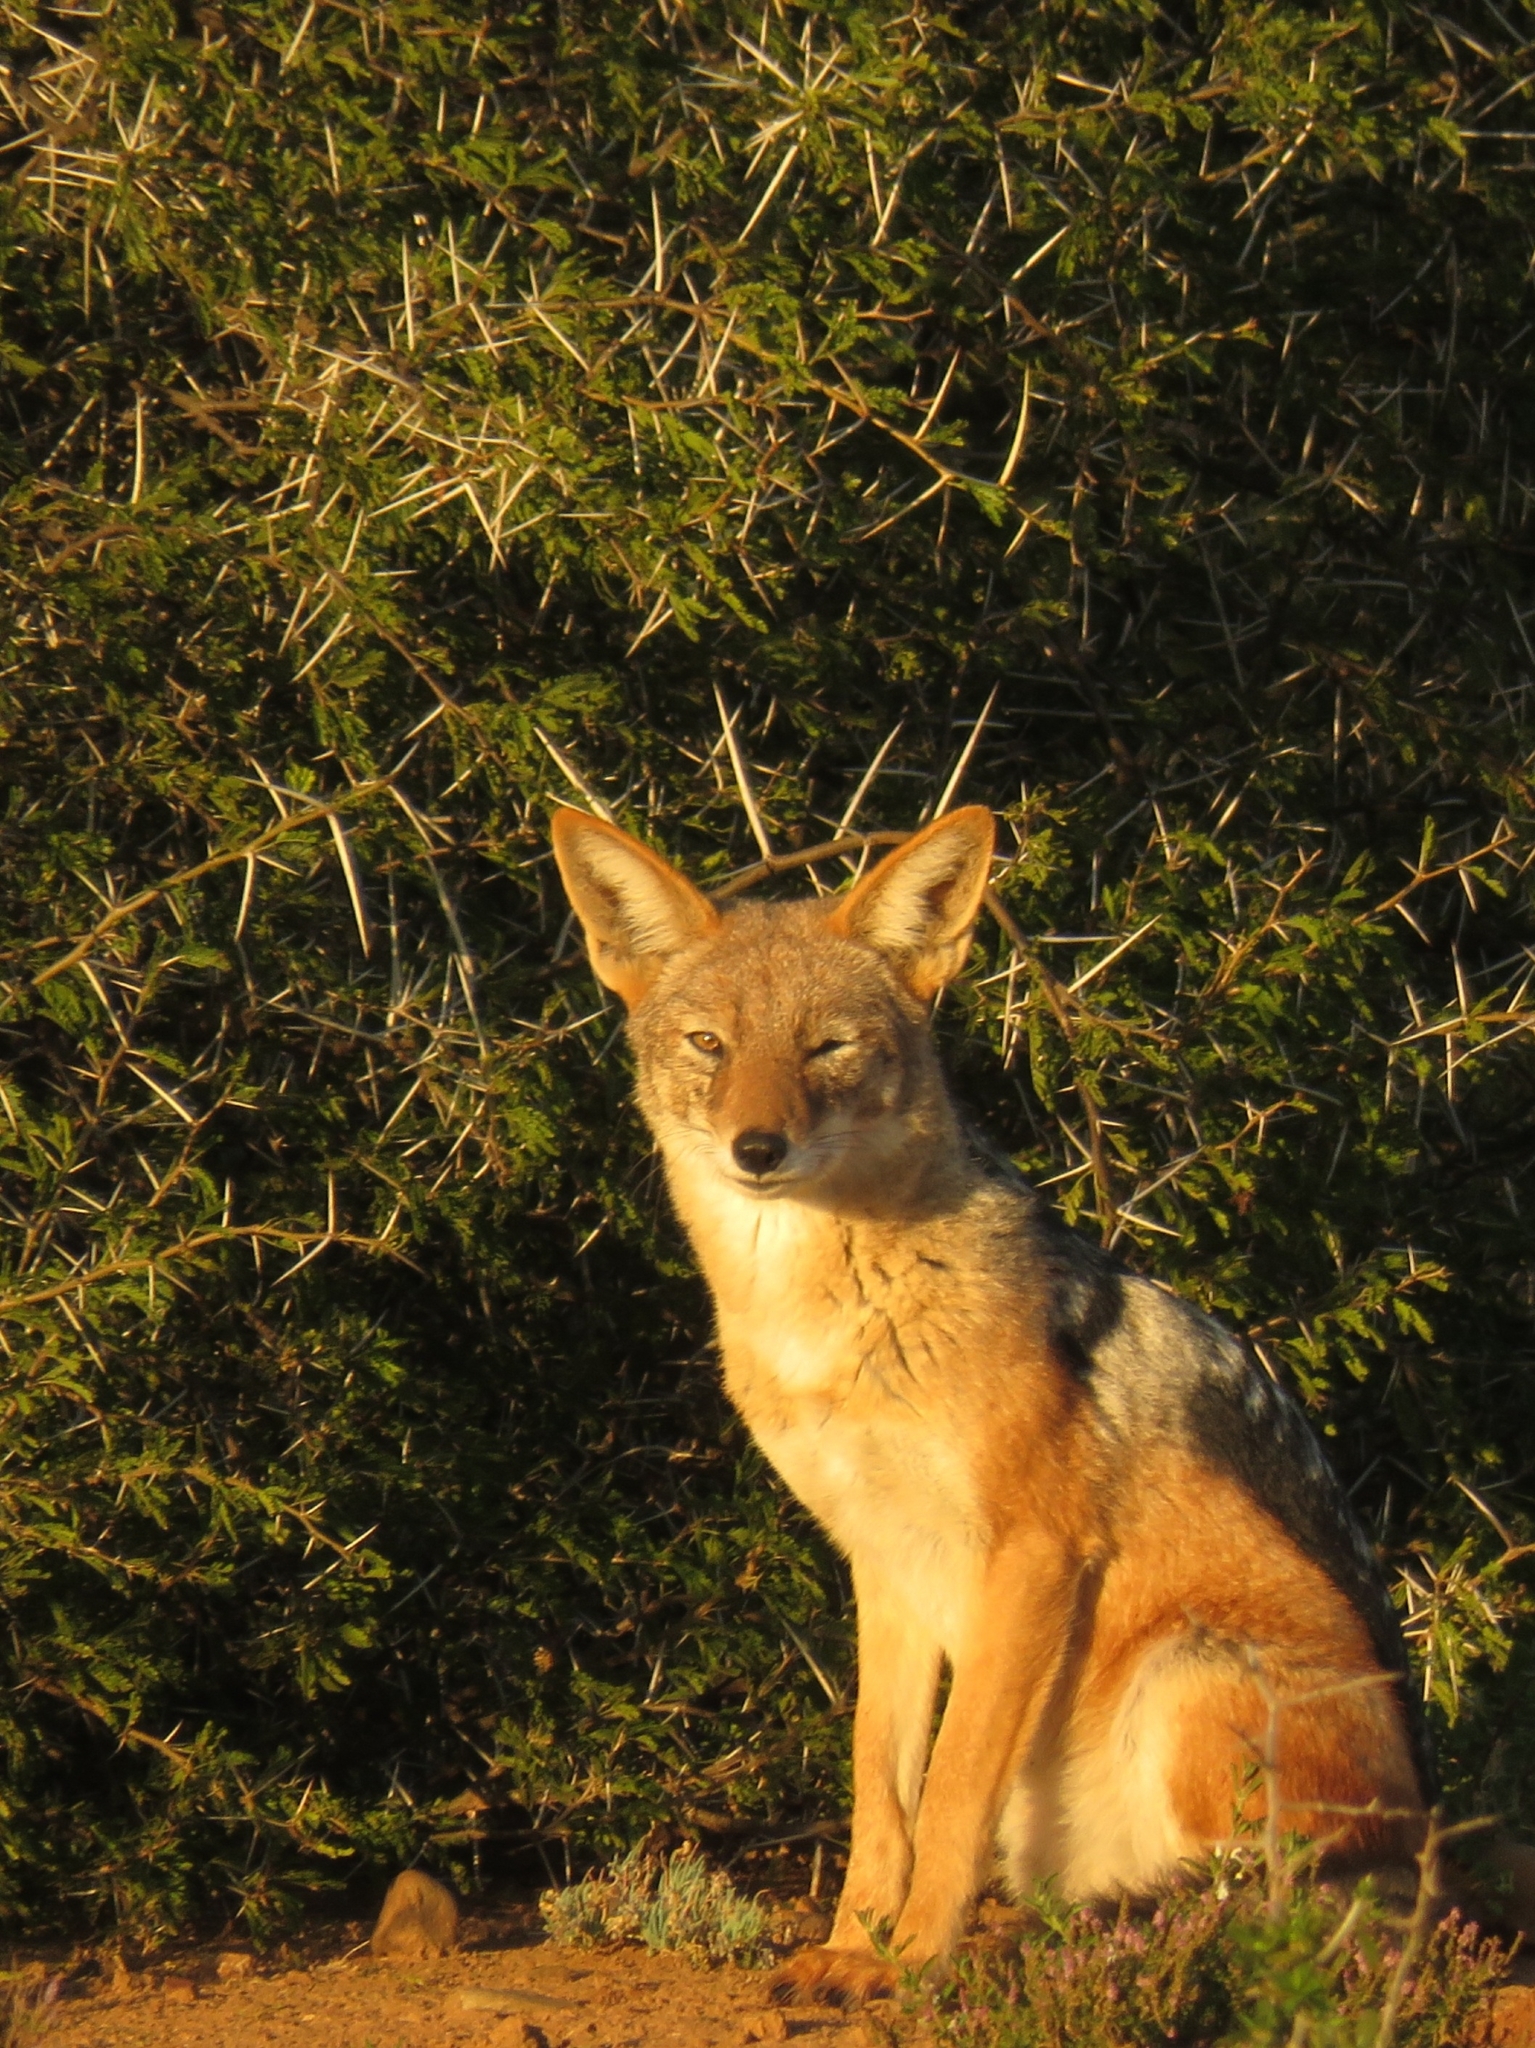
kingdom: Animalia
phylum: Chordata
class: Mammalia
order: Carnivora
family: Canidae
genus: Lupulella
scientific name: Lupulella
